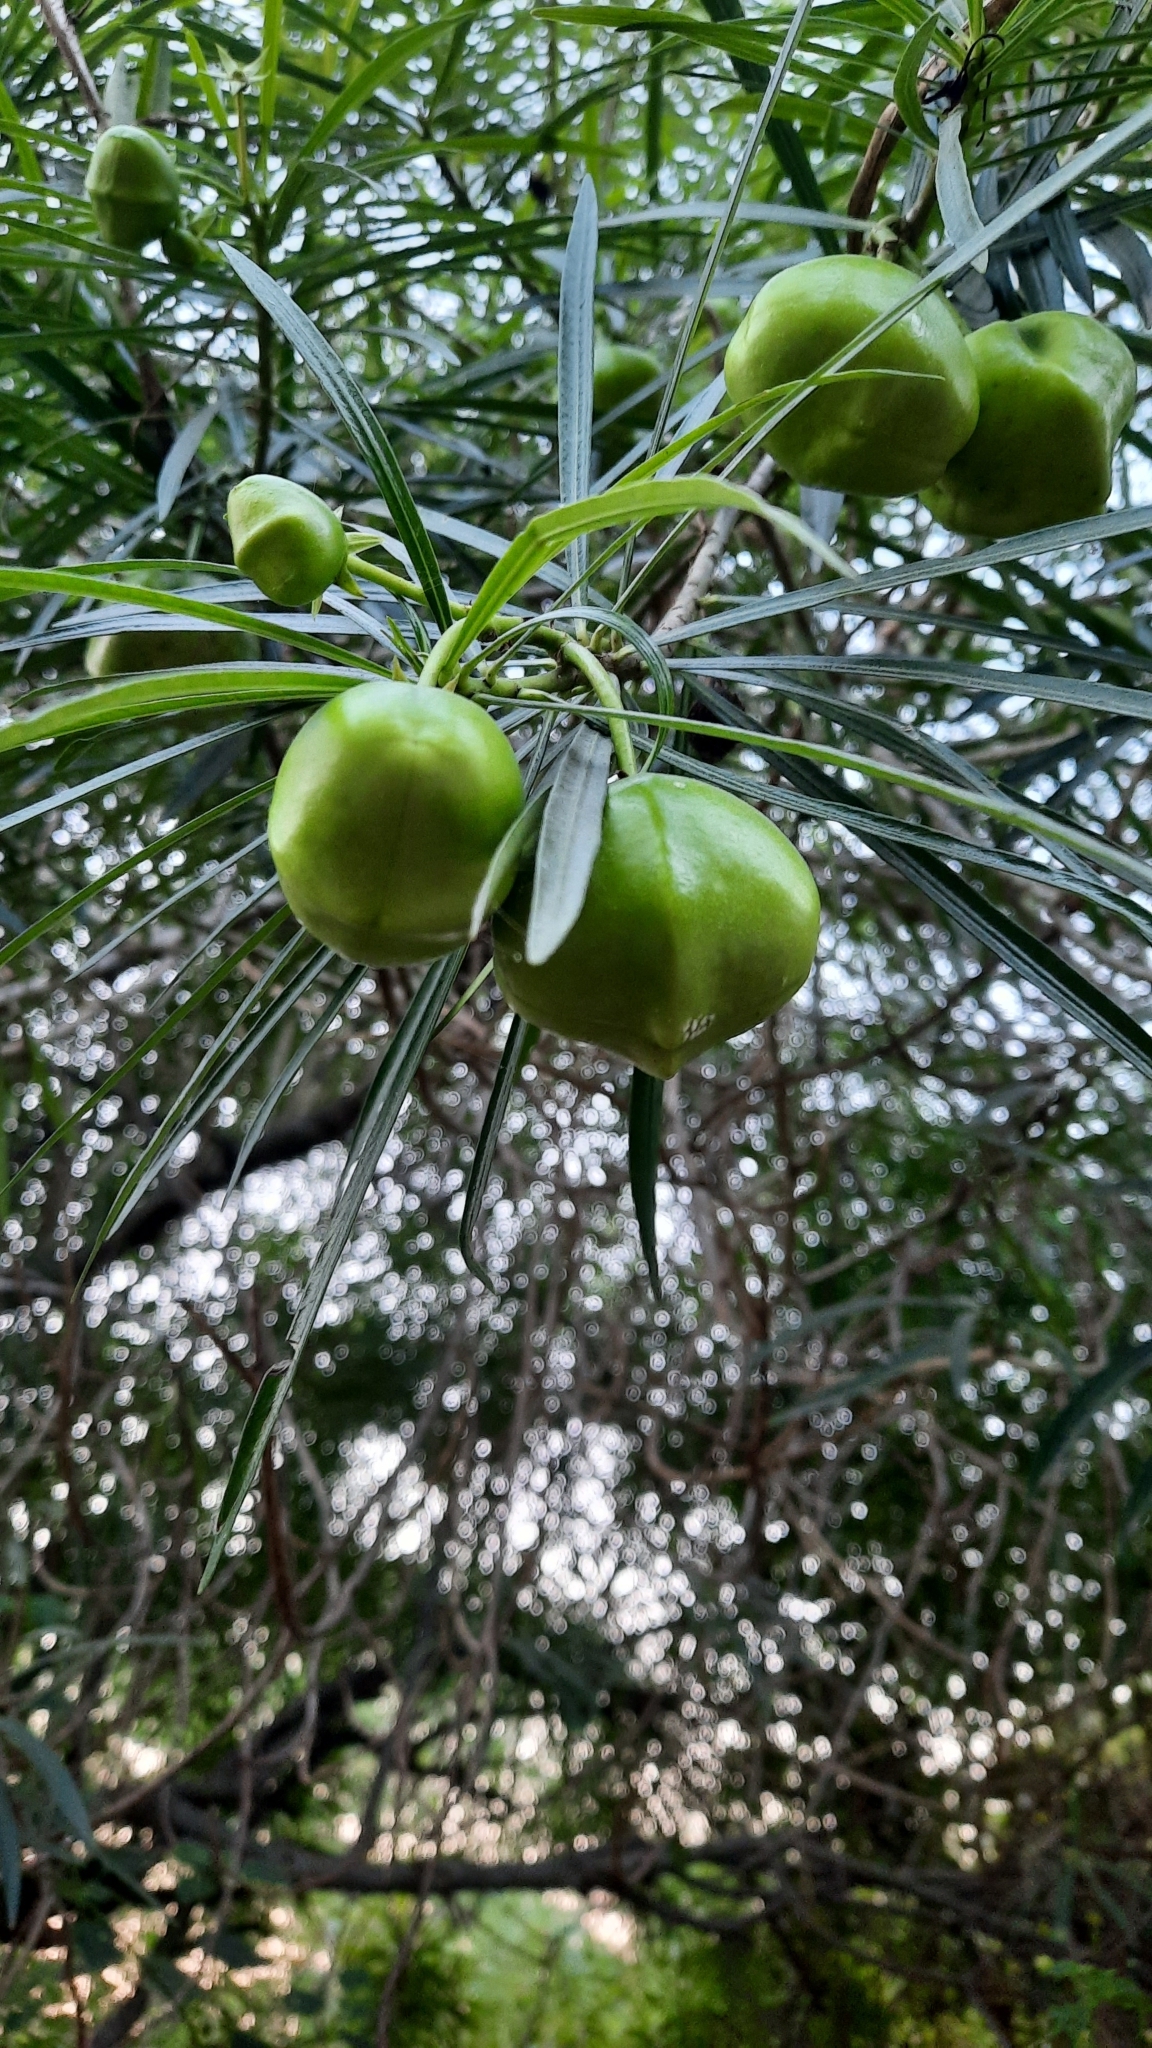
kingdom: Plantae
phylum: Tracheophyta
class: Magnoliopsida
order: Gentianales
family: Apocynaceae
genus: Cascabela
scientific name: Cascabela thevetia
